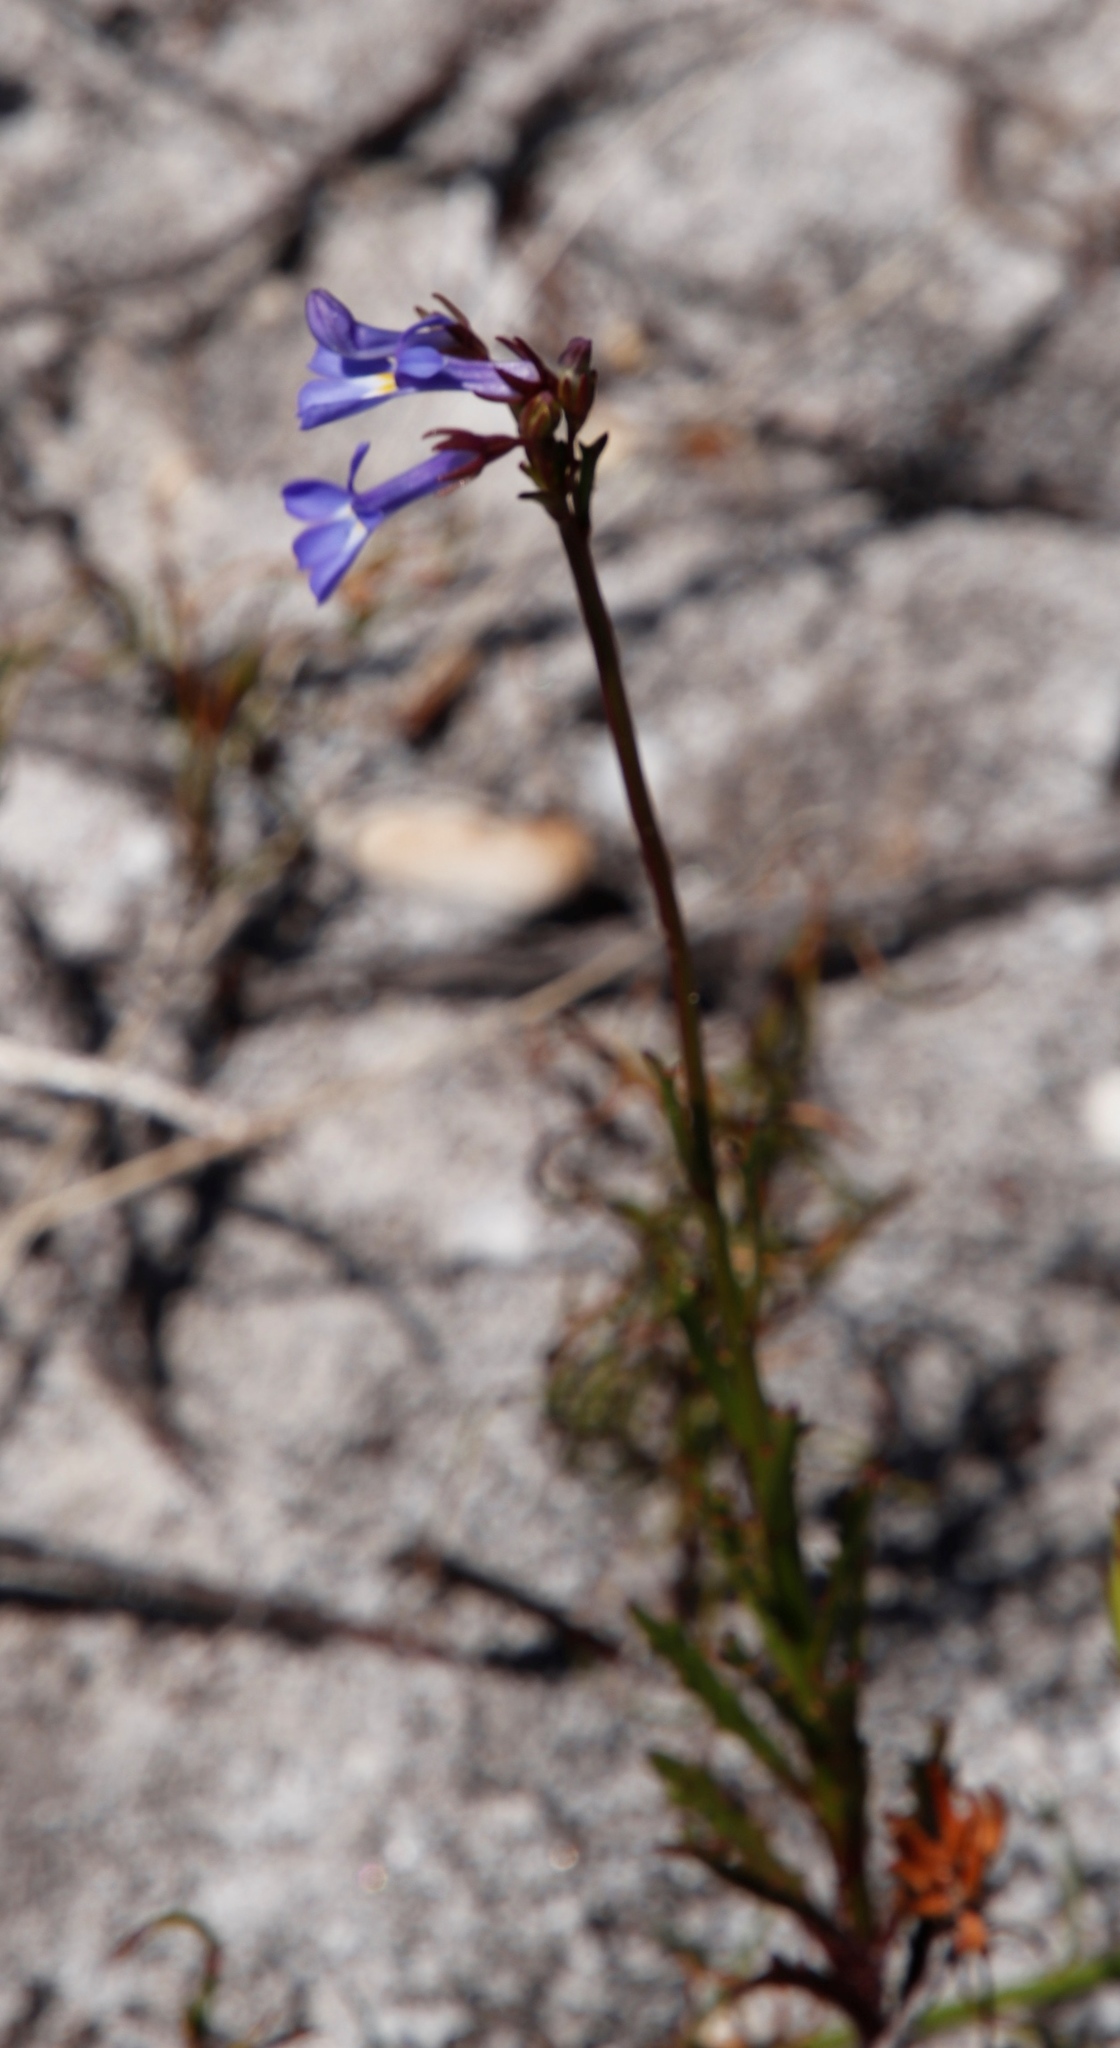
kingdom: Plantae
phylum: Tracheophyta
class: Magnoliopsida
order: Asterales
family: Campanulaceae
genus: Lobelia
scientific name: Lobelia comosa
